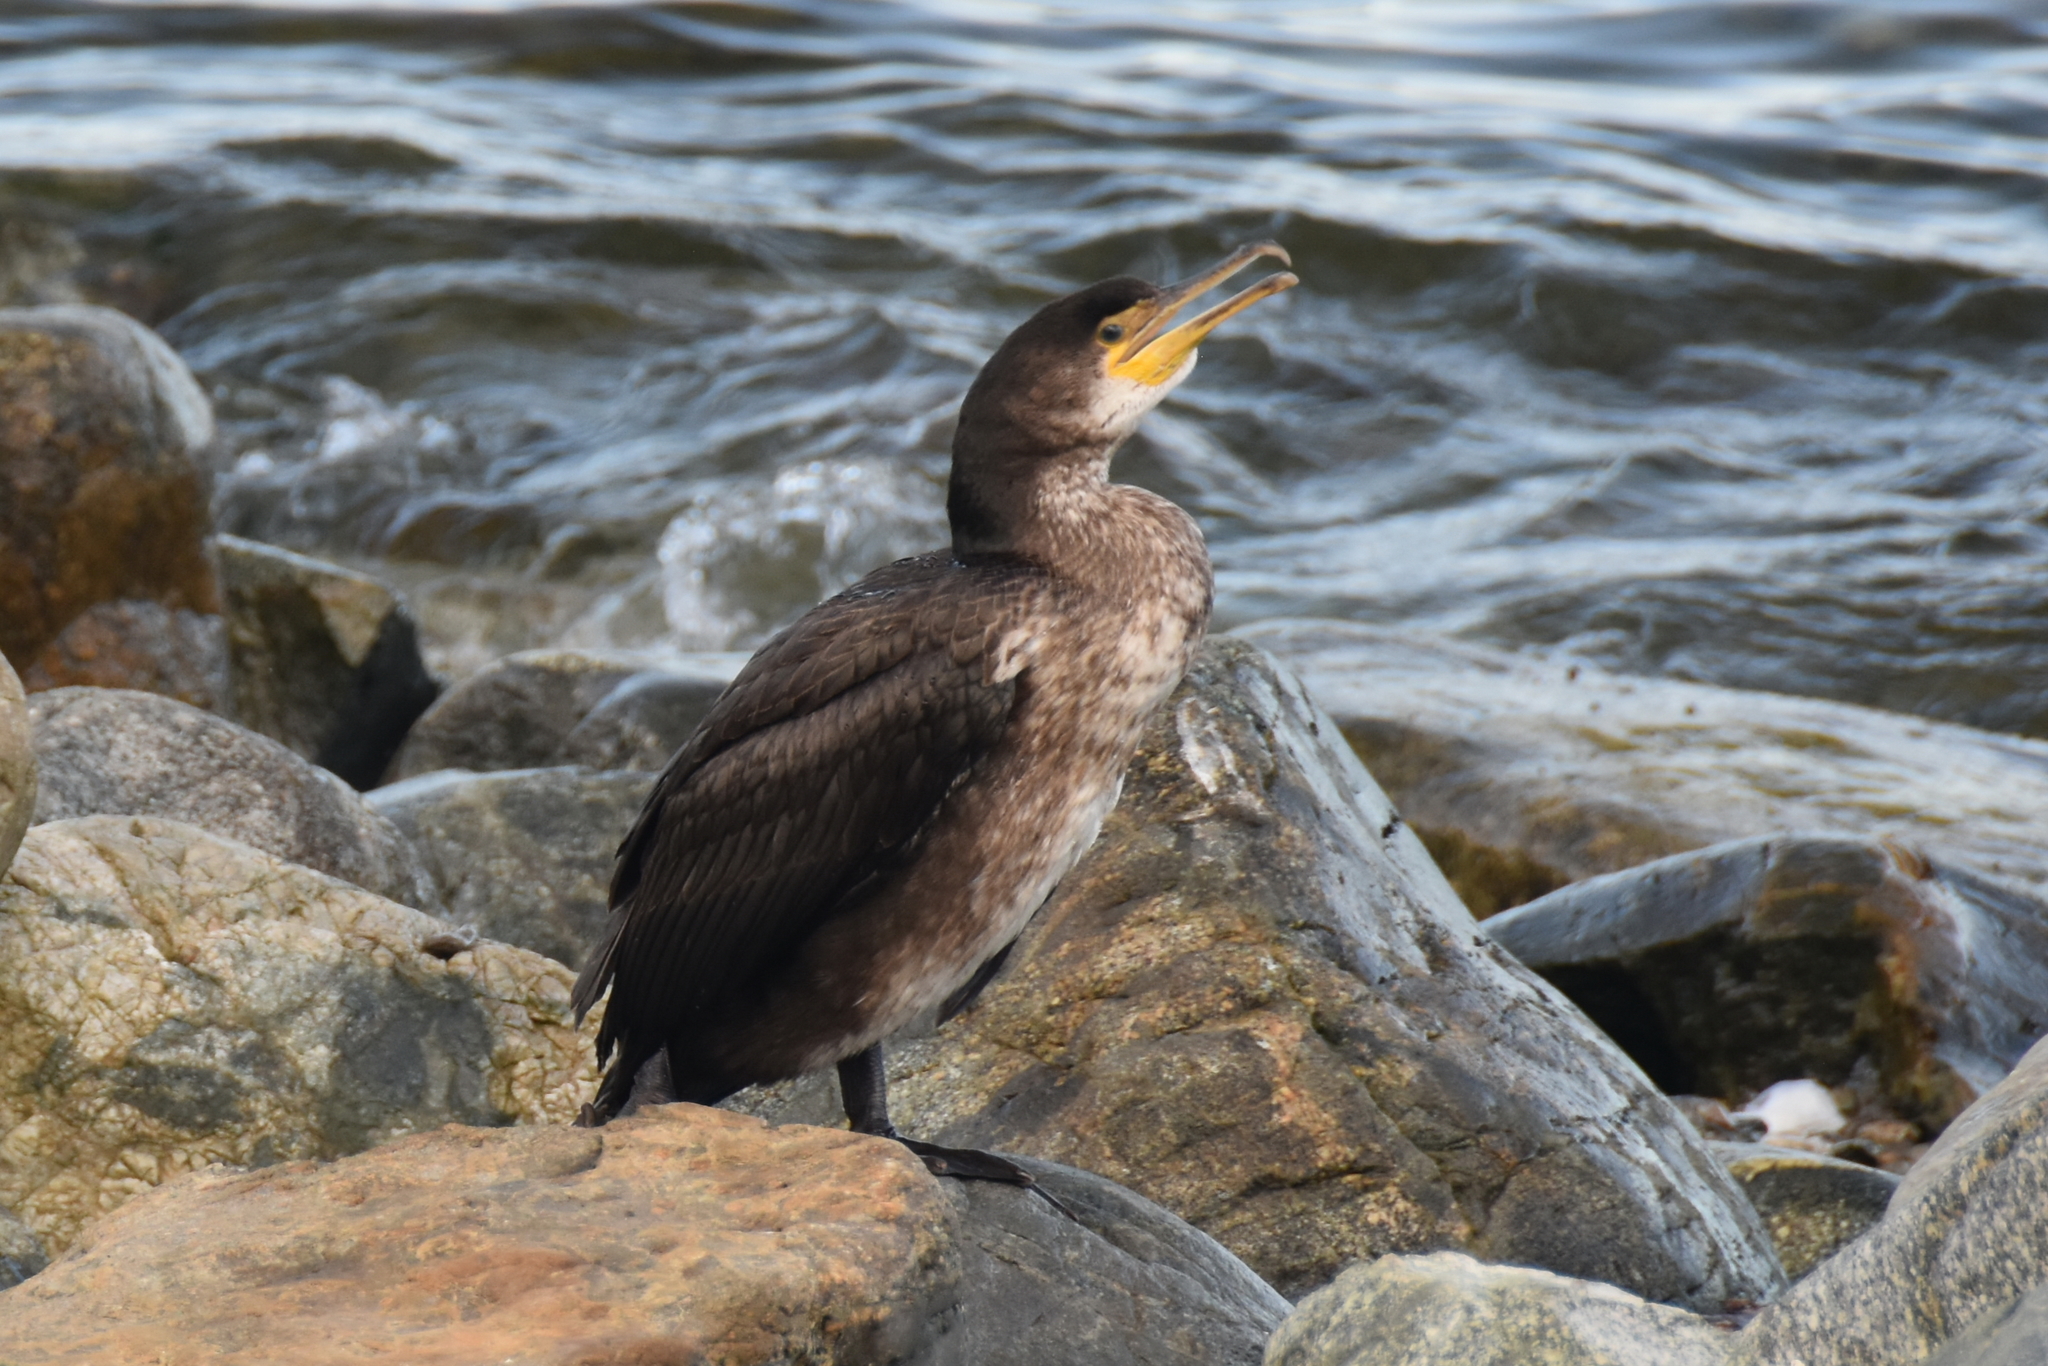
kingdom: Animalia
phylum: Chordata
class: Aves
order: Suliformes
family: Phalacrocoracidae
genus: Phalacrocorax
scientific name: Phalacrocorax carbo
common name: Great cormorant
